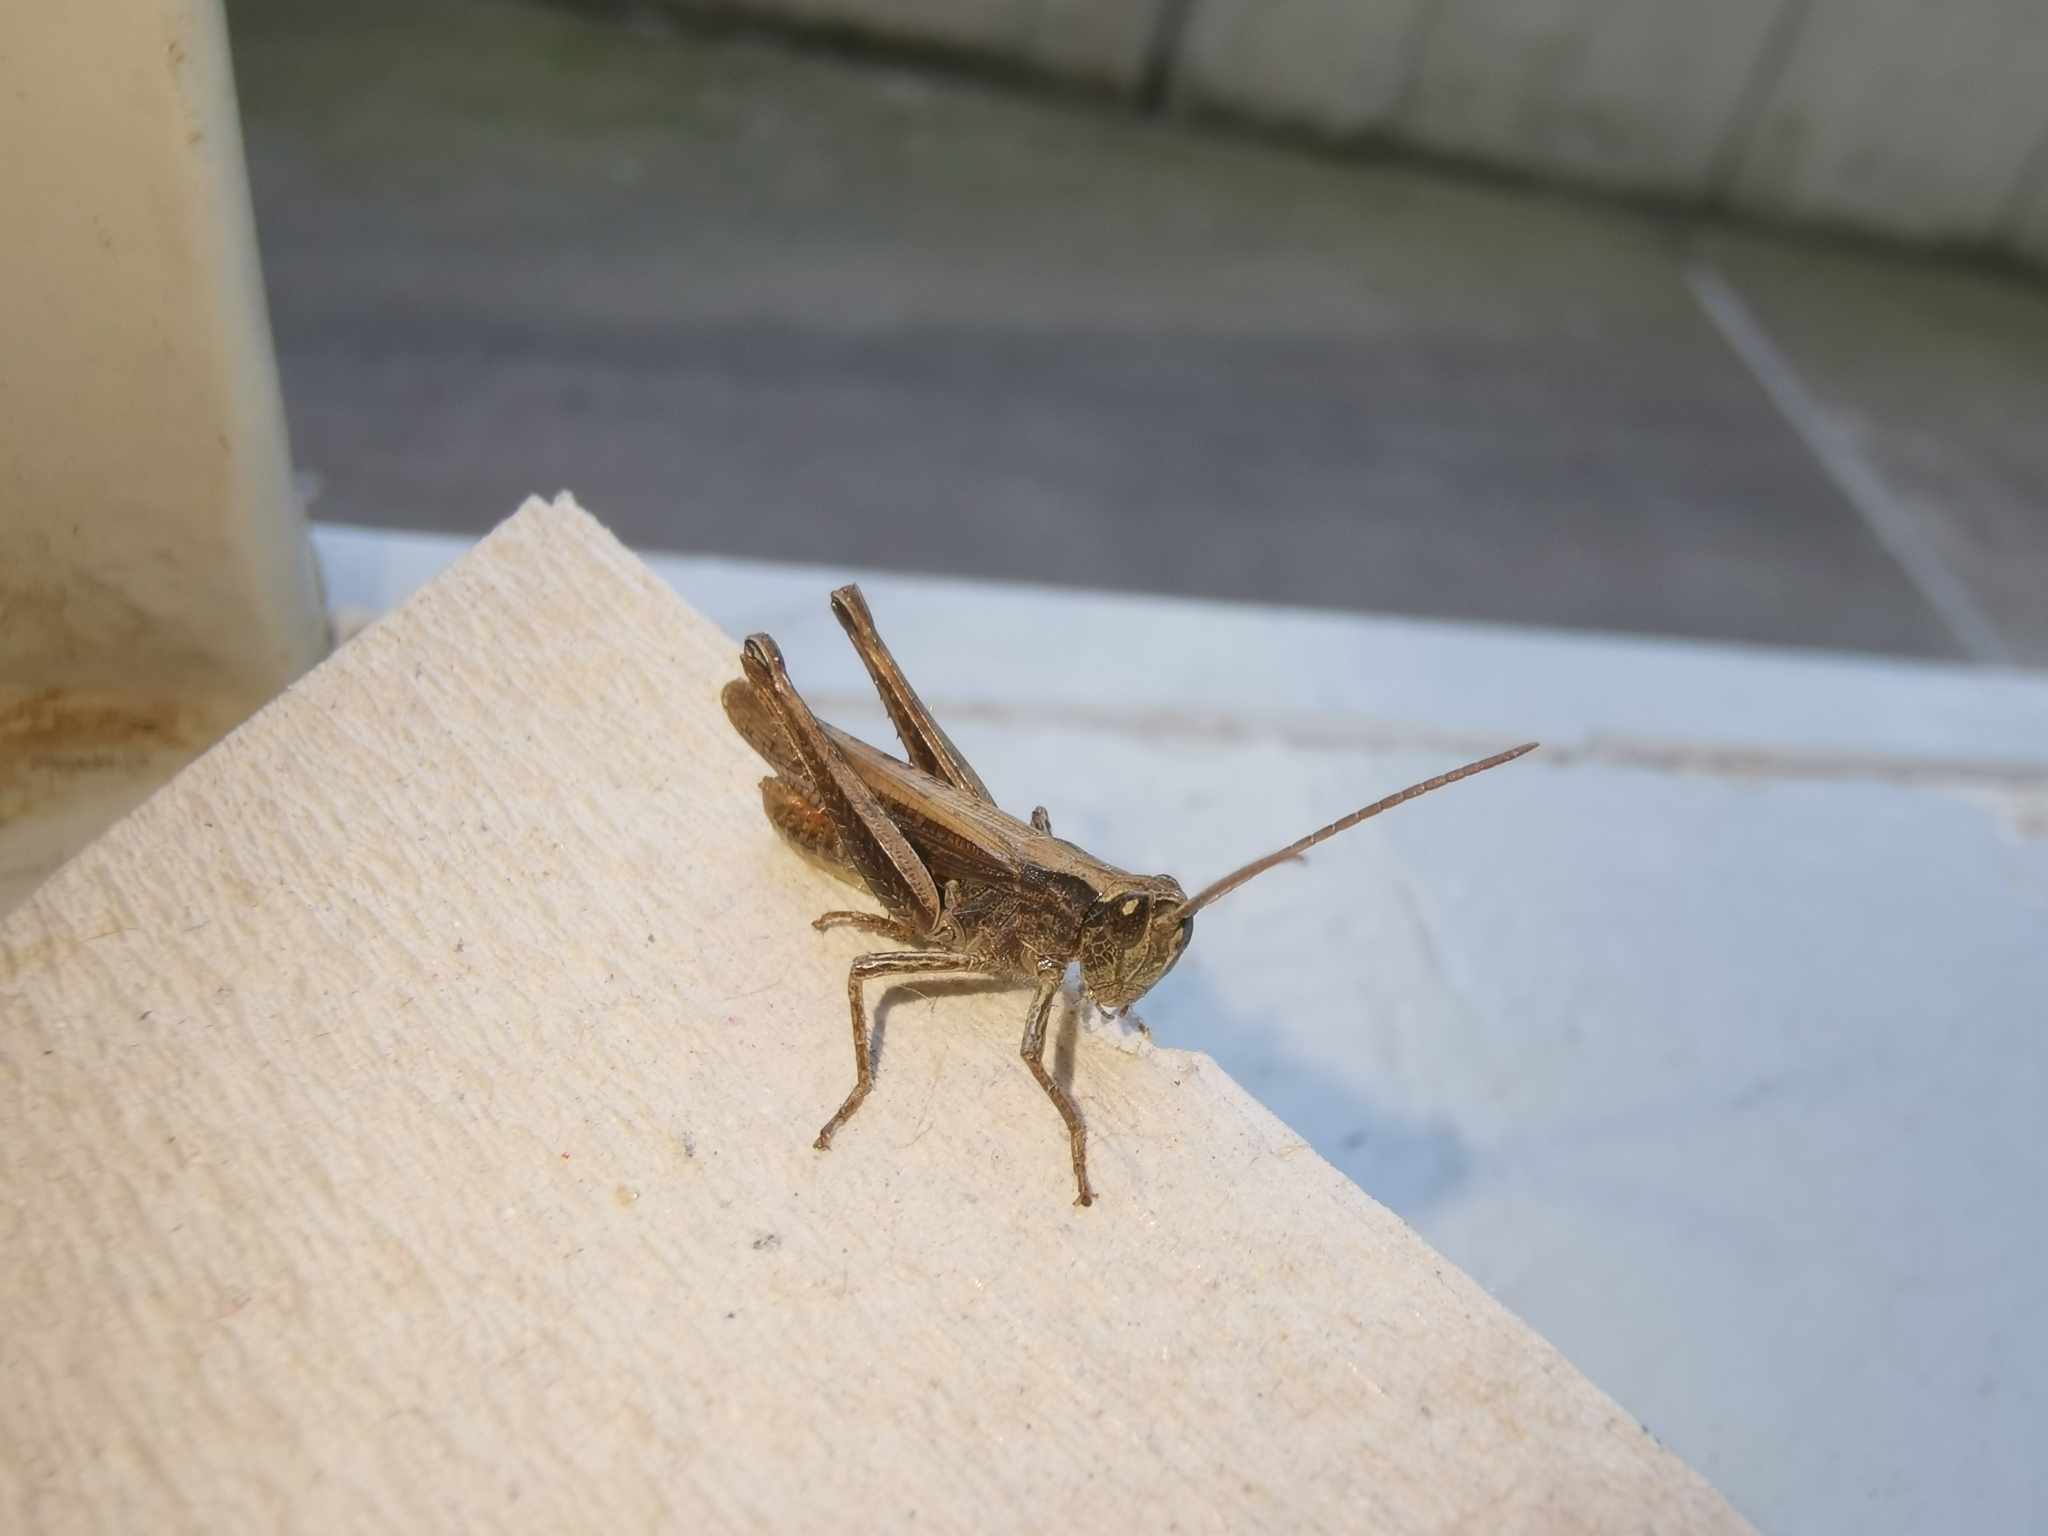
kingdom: Animalia
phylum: Arthropoda
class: Insecta
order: Orthoptera
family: Acrididae
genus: Chorthippus
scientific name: Chorthippus dorsatus
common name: Steppe grasshopper
